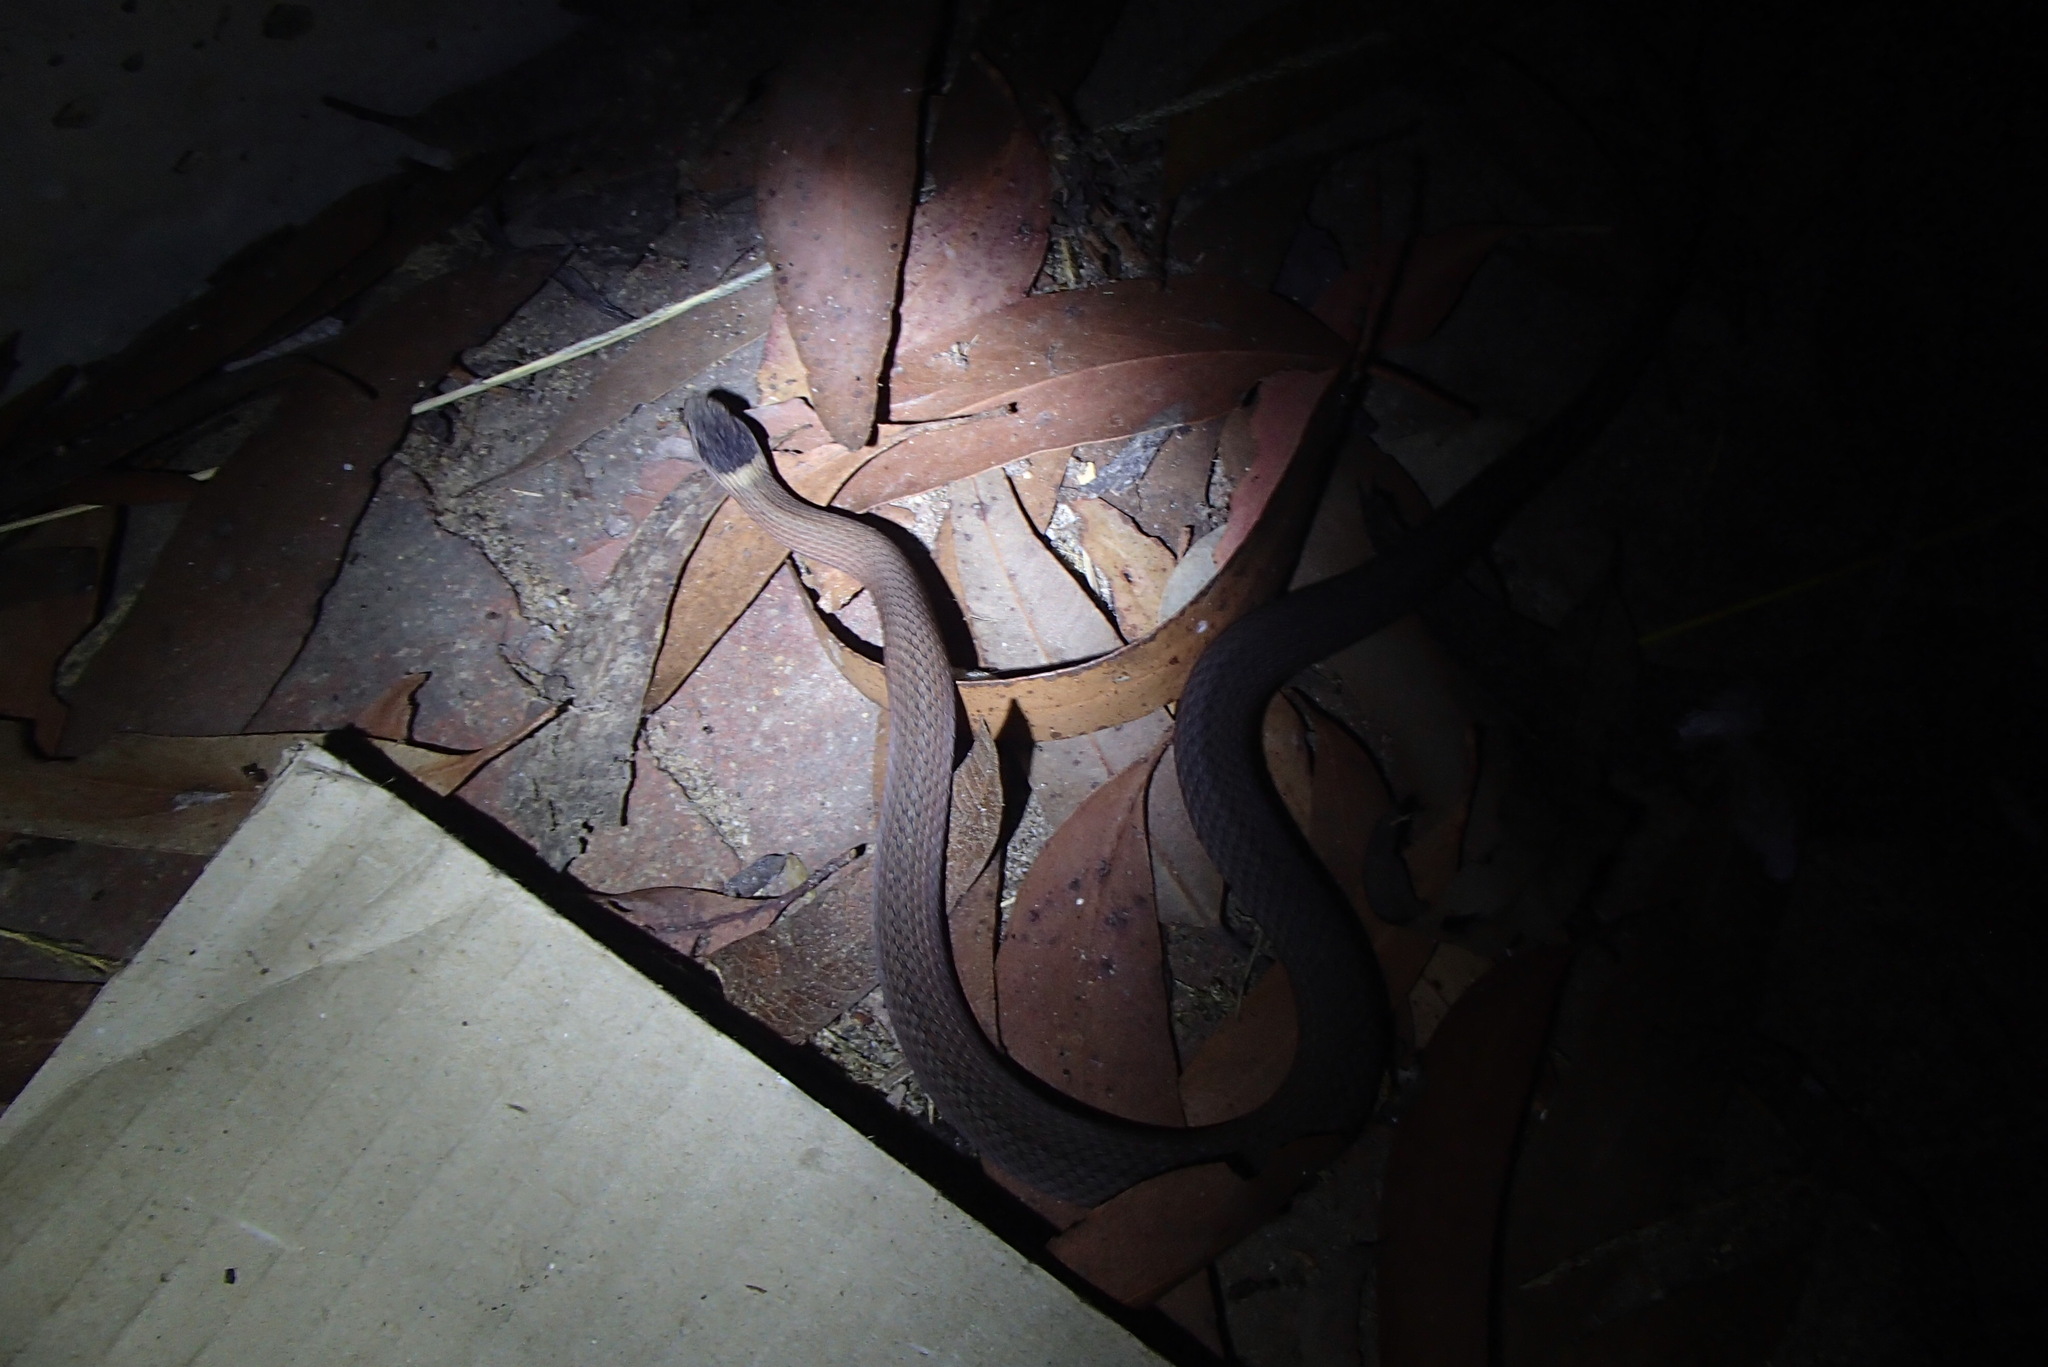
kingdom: Animalia
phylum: Chordata
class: Squamata
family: Elapidae
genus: Drysdalia
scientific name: Drysdalia rhodogaster
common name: Mustard-bellied snake
